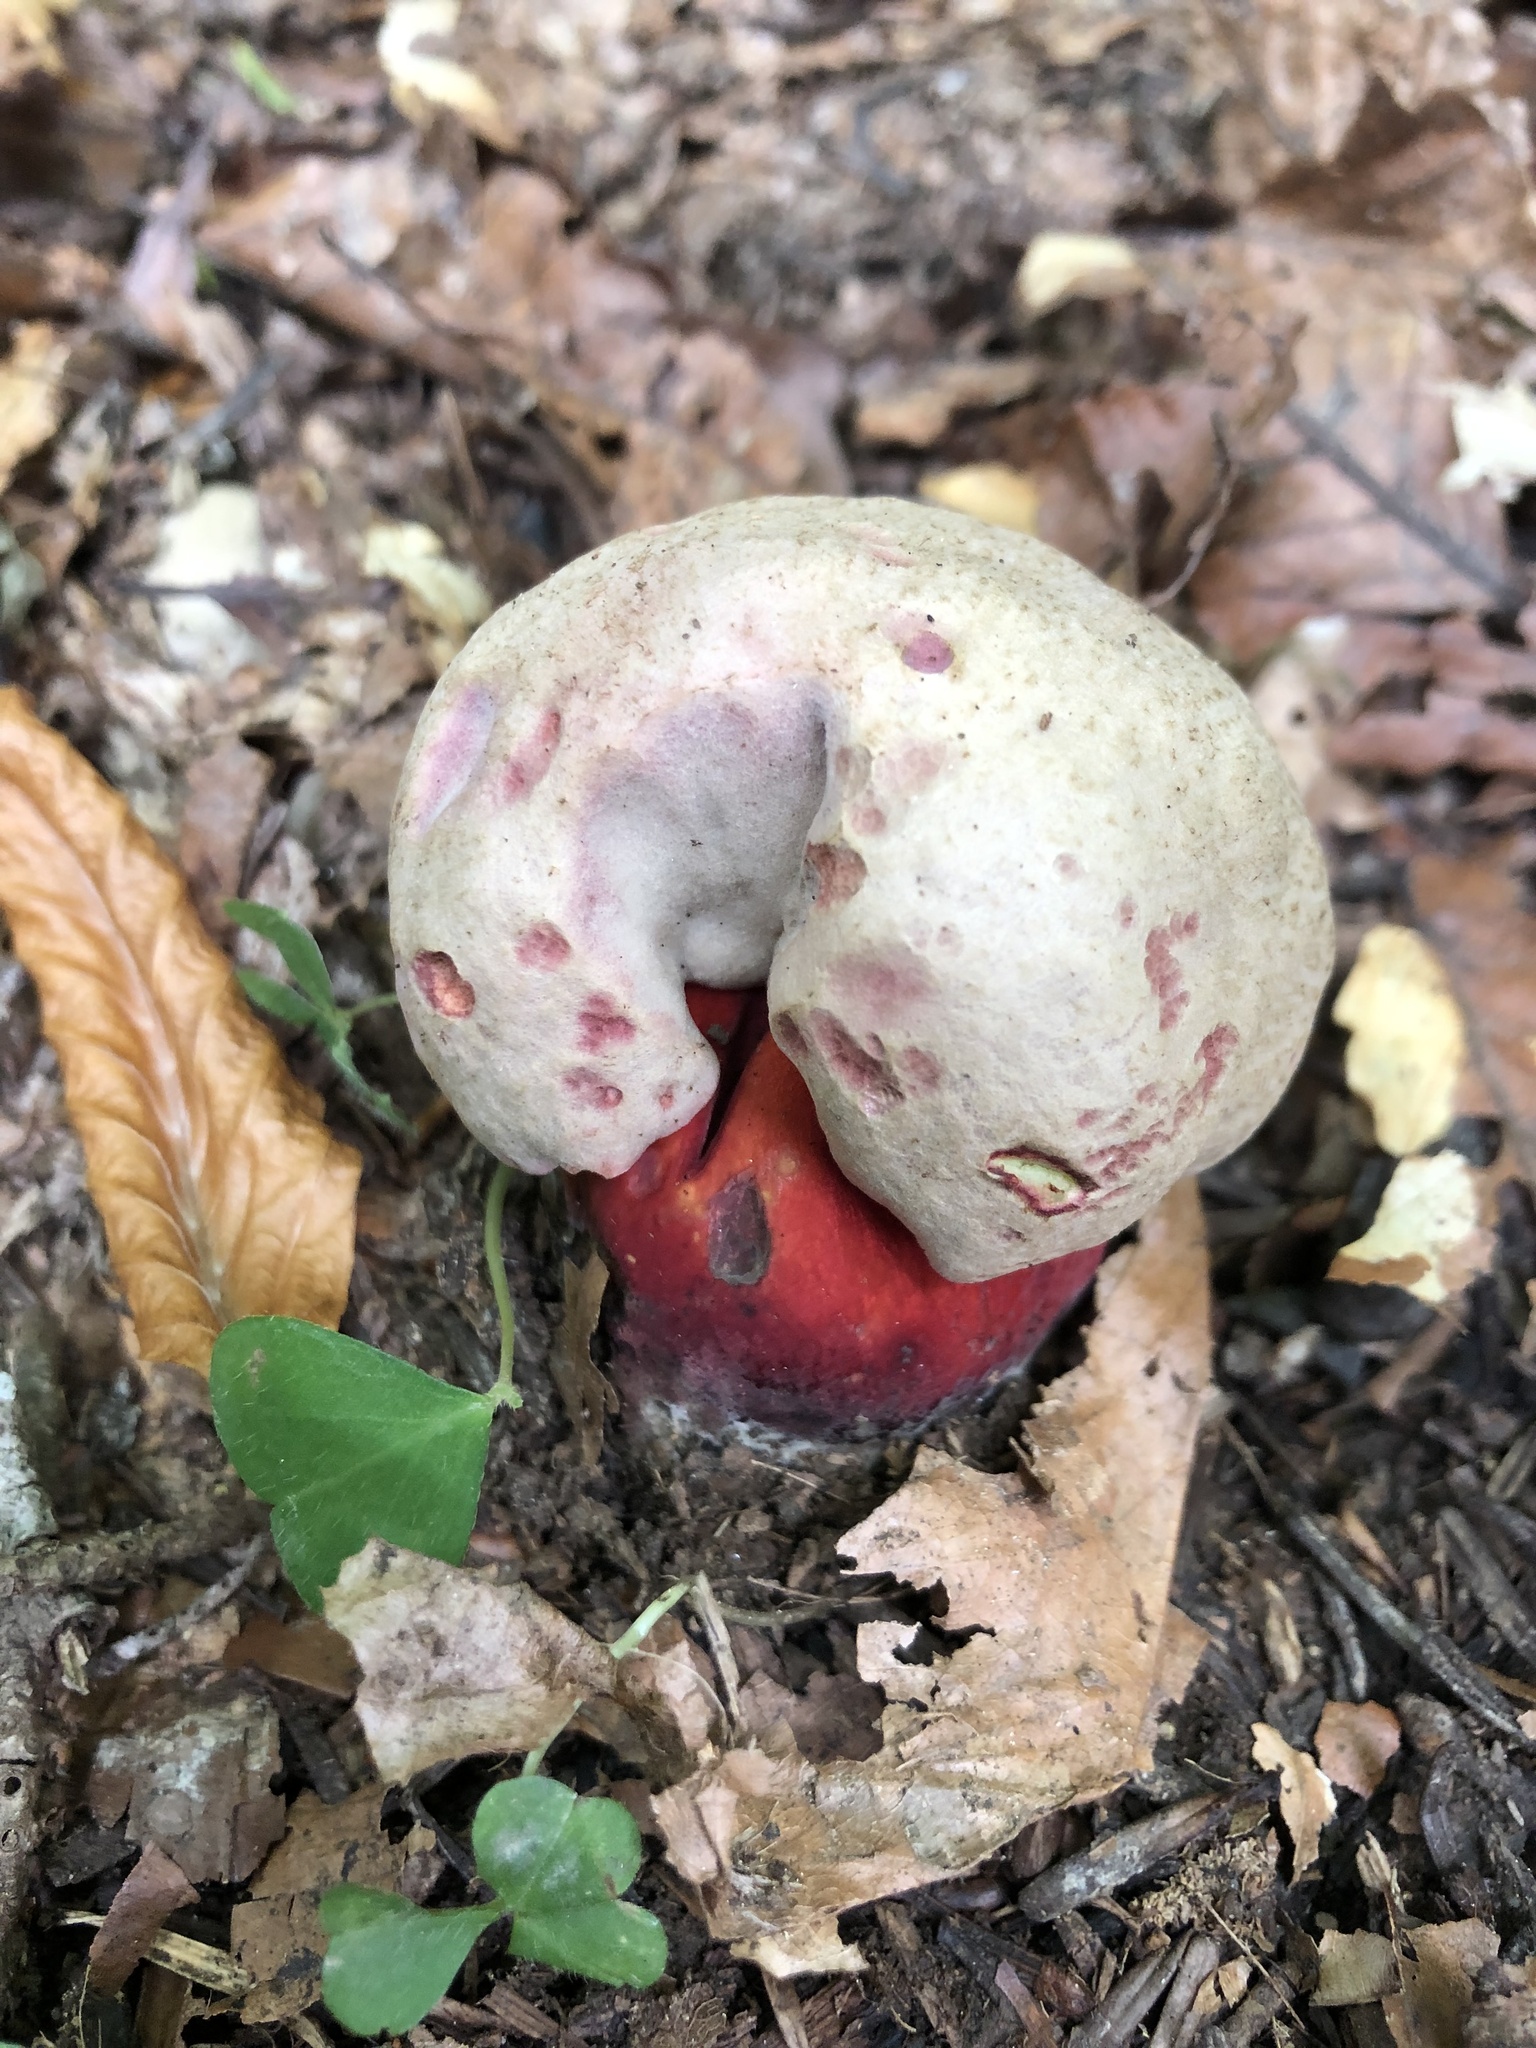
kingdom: Fungi
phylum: Basidiomycota
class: Agaricomycetes
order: Boletales
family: Boletaceae
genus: Rubroboletus
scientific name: Rubroboletus rubrosanguineus
